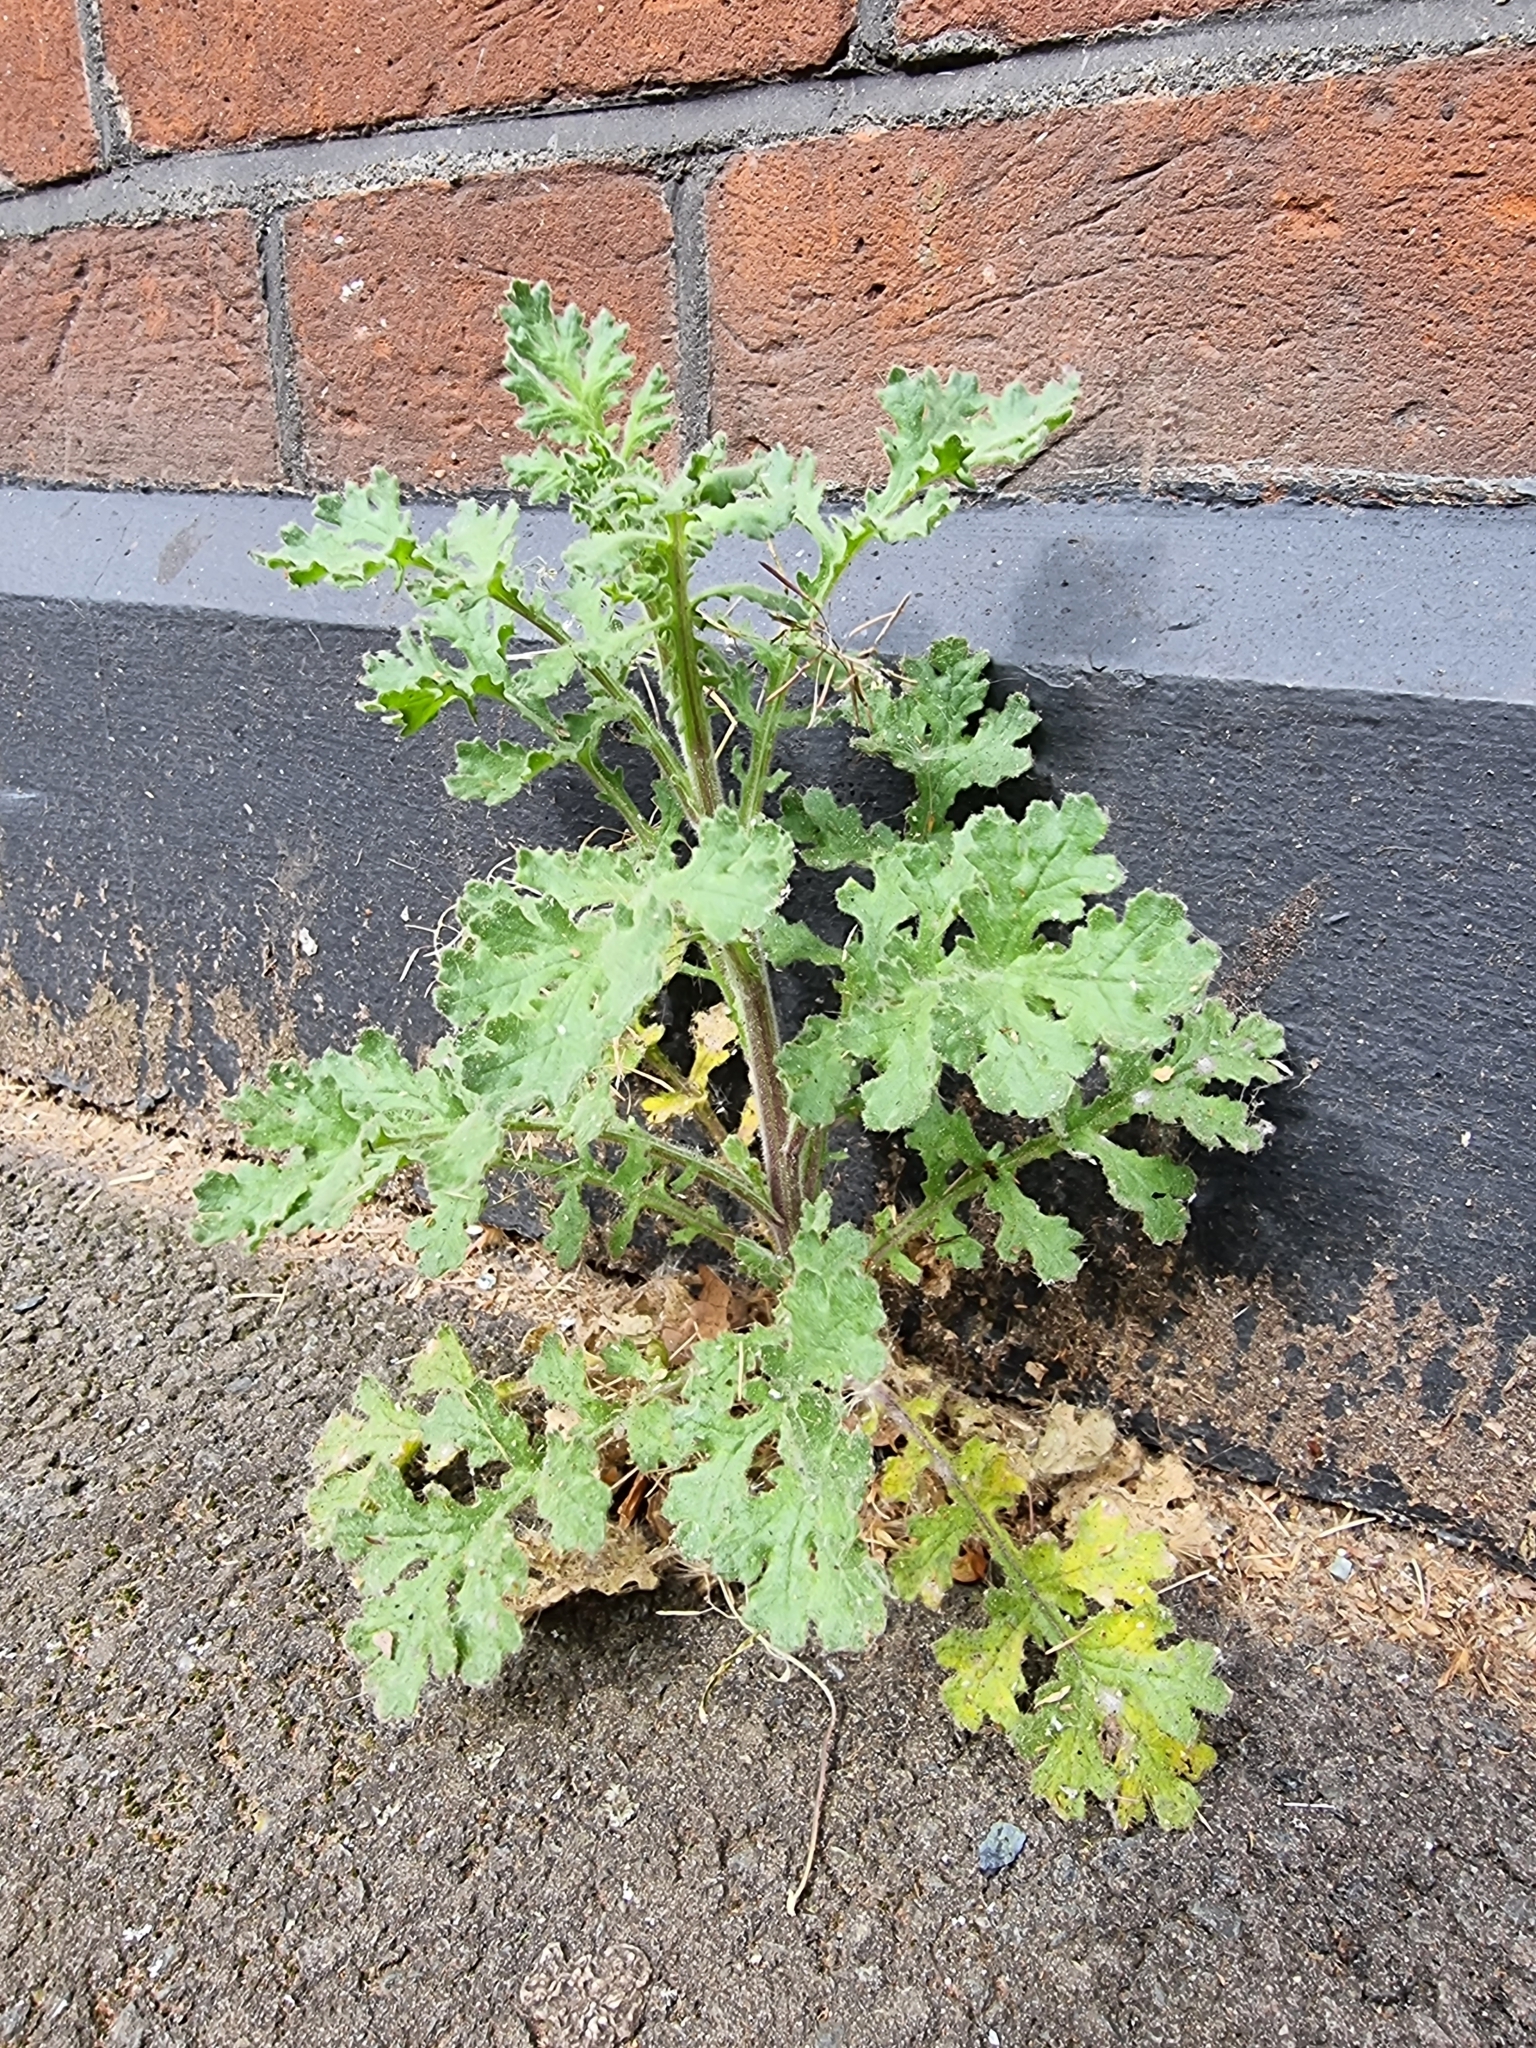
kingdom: Plantae
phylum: Tracheophyta
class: Magnoliopsida
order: Asterales
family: Asteraceae
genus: Senecio
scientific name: Senecio viscosus
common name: Sticky groundsel
